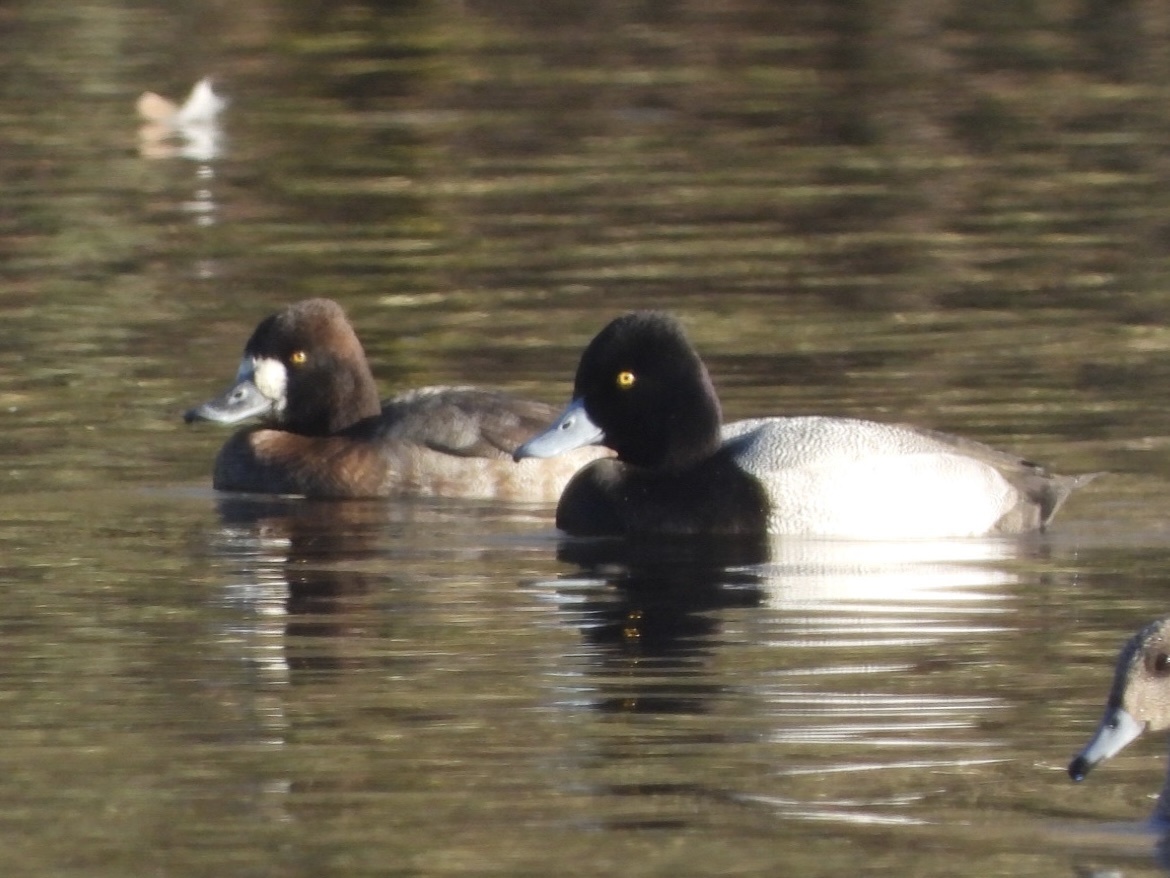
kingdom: Animalia
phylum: Chordata
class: Aves
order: Anseriformes
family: Anatidae
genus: Aythya
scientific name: Aythya affinis
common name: Lesser scaup
